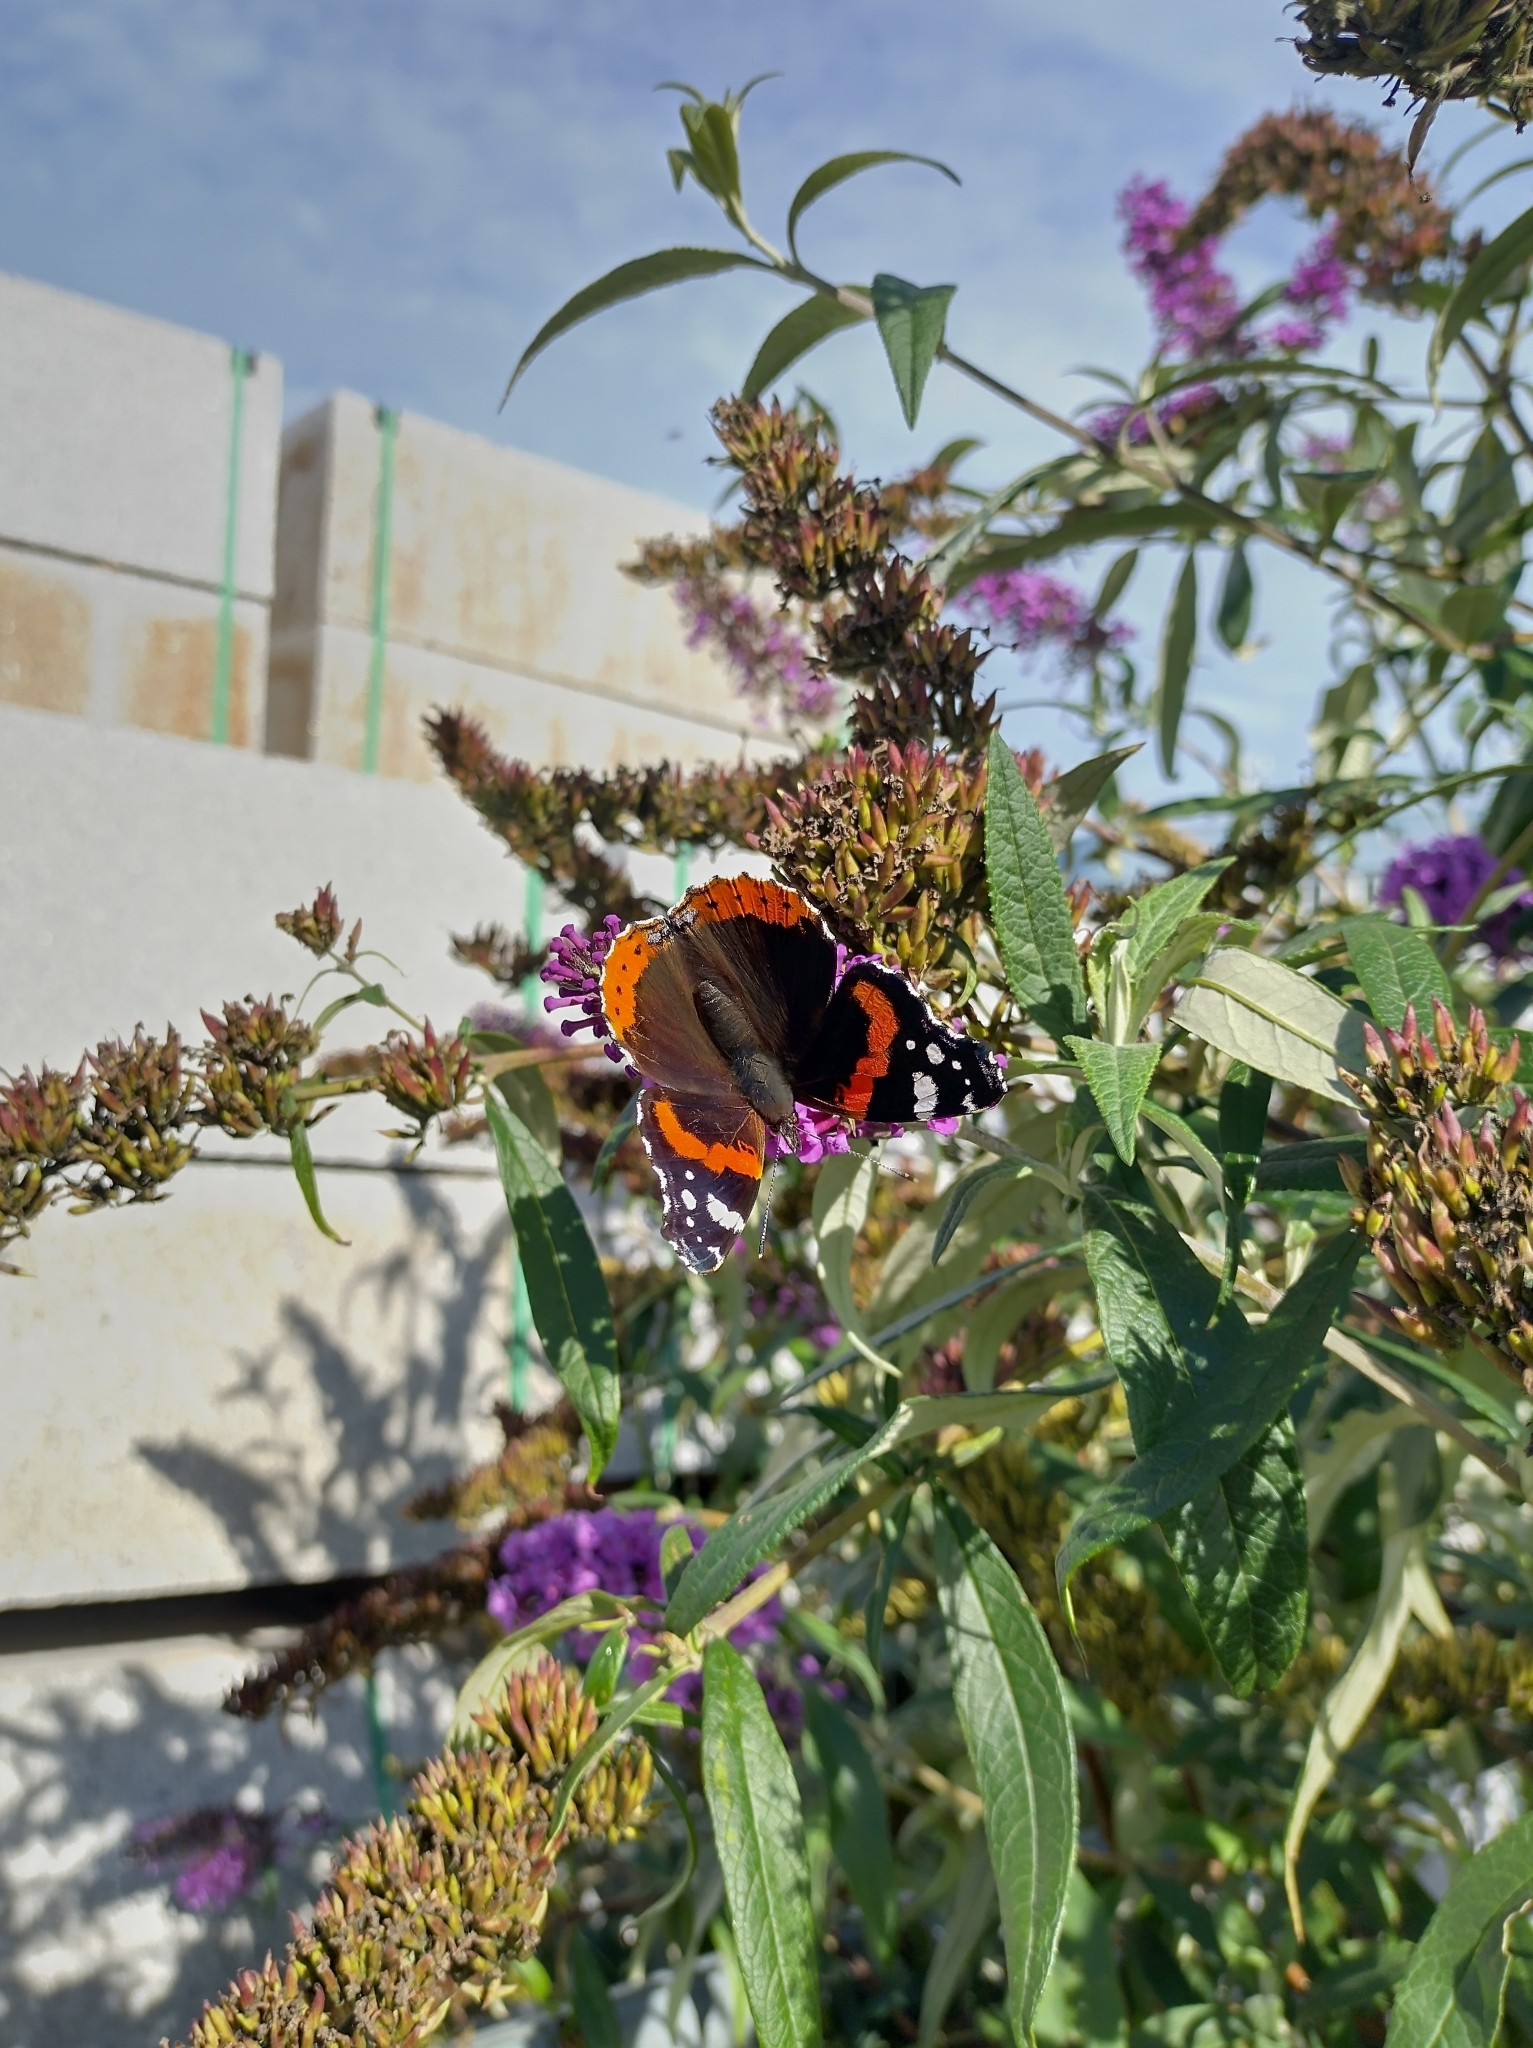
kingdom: Animalia
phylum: Arthropoda
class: Insecta
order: Lepidoptera
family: Nymphalidae
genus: Vanessa
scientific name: Vanessa atalanta
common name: Red admiral
